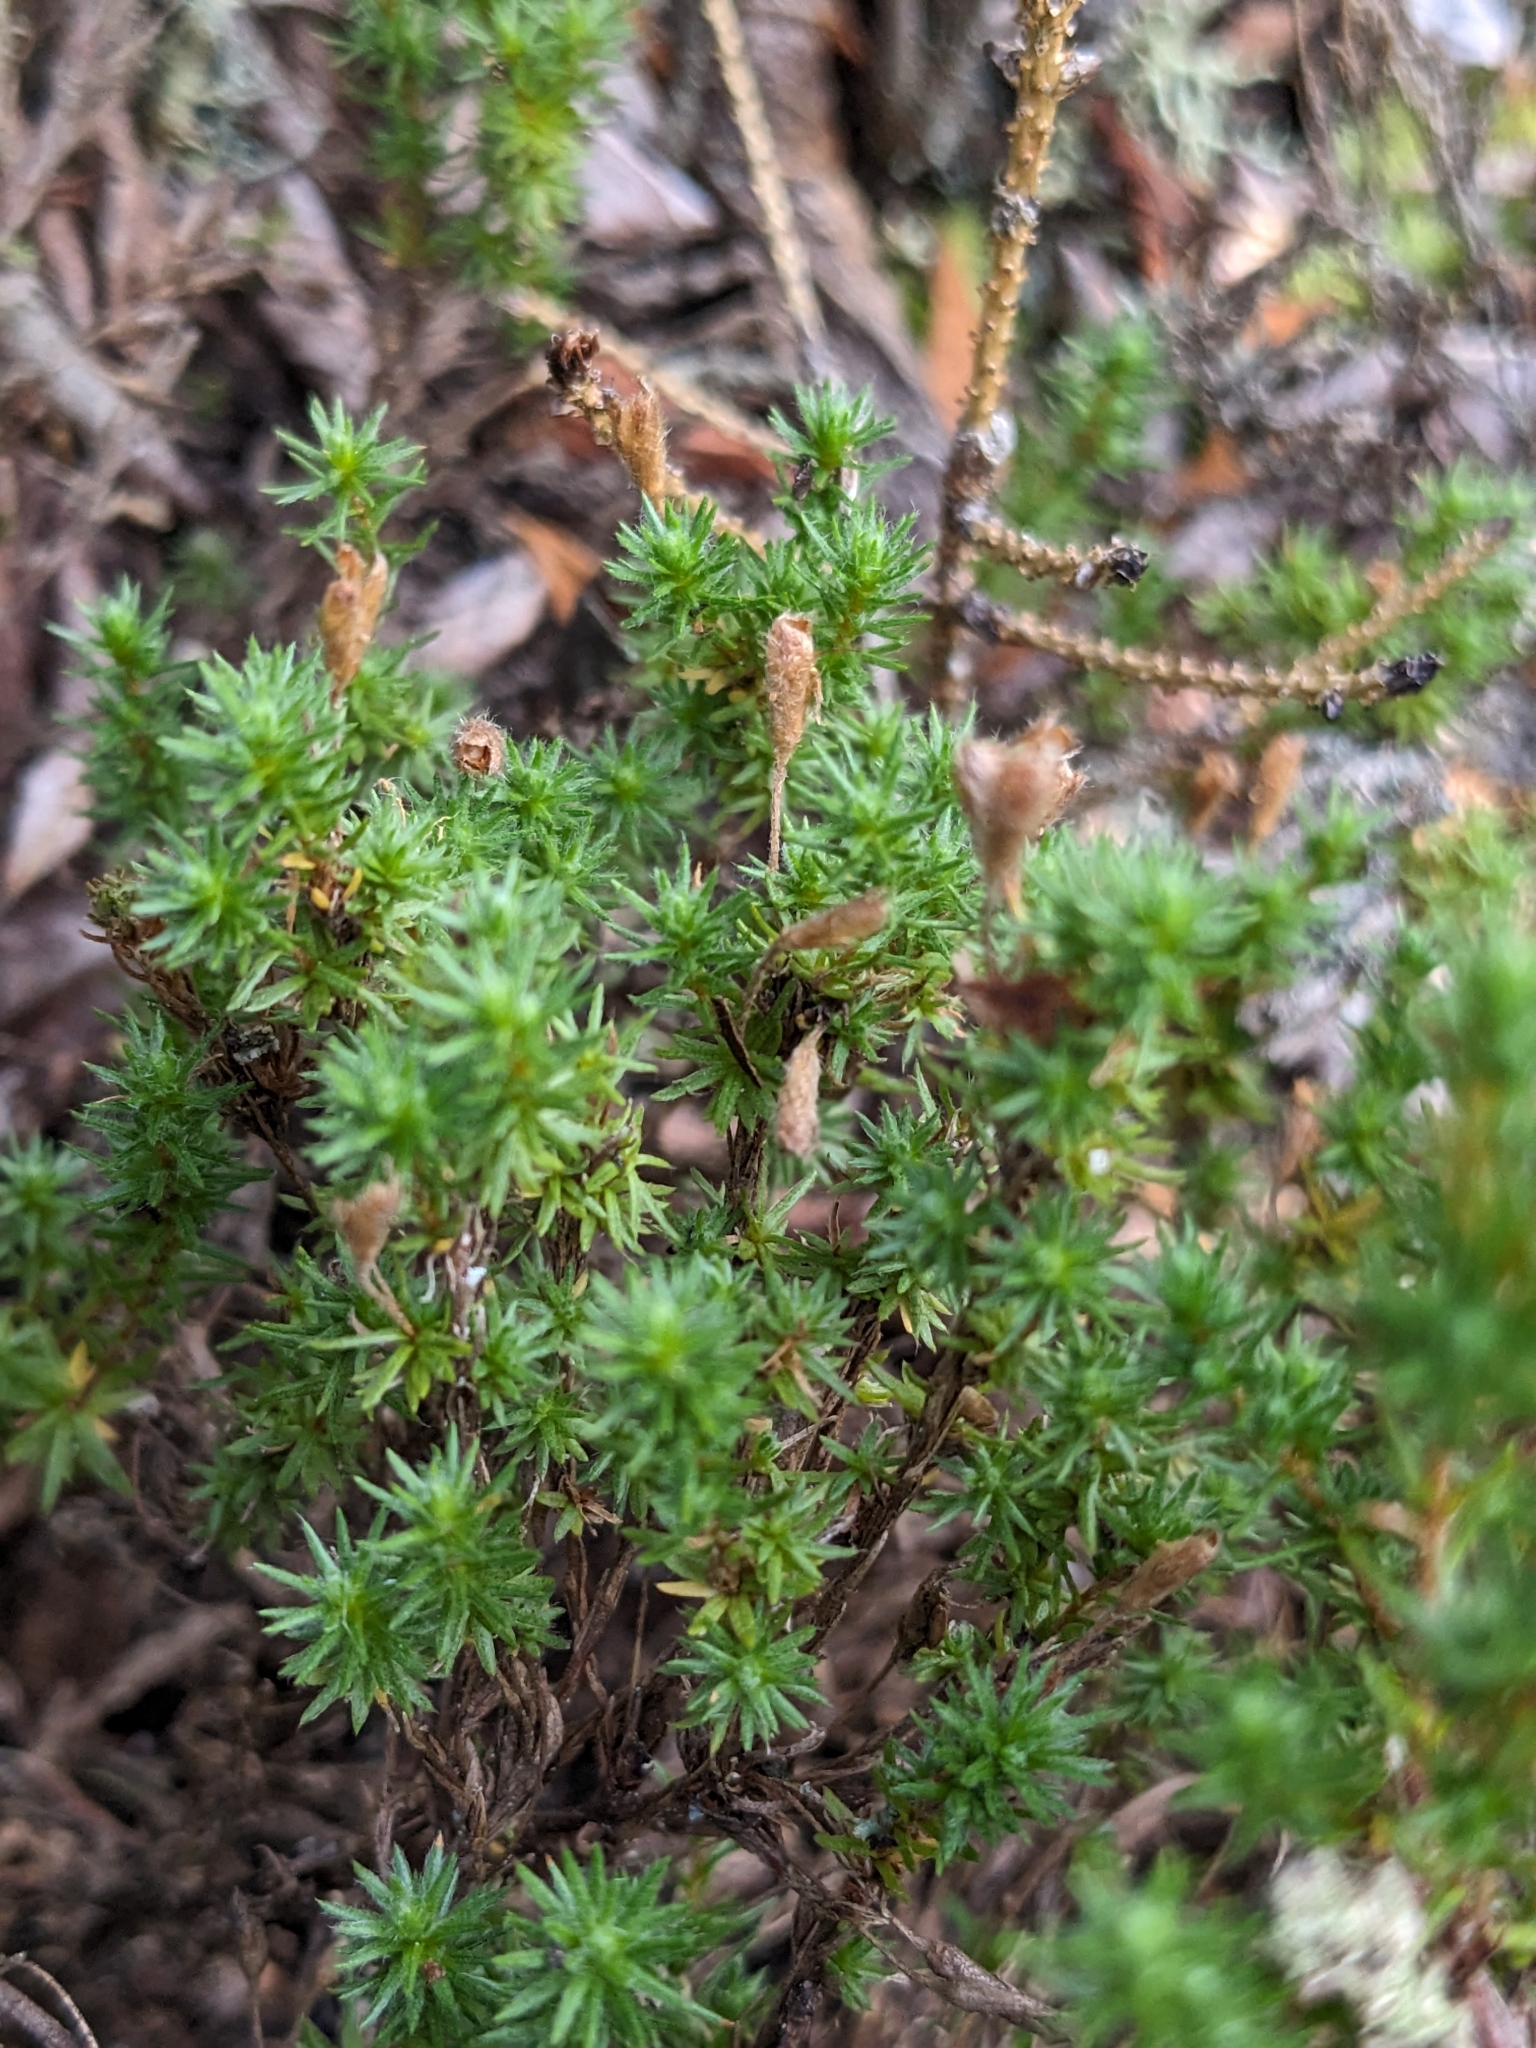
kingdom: Plantae
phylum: Tracheophyta
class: Magnoliopsida
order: Malvales
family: Cistaceae
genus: Hudsonia
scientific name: Hudsonia ericoides
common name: Golden-heather
